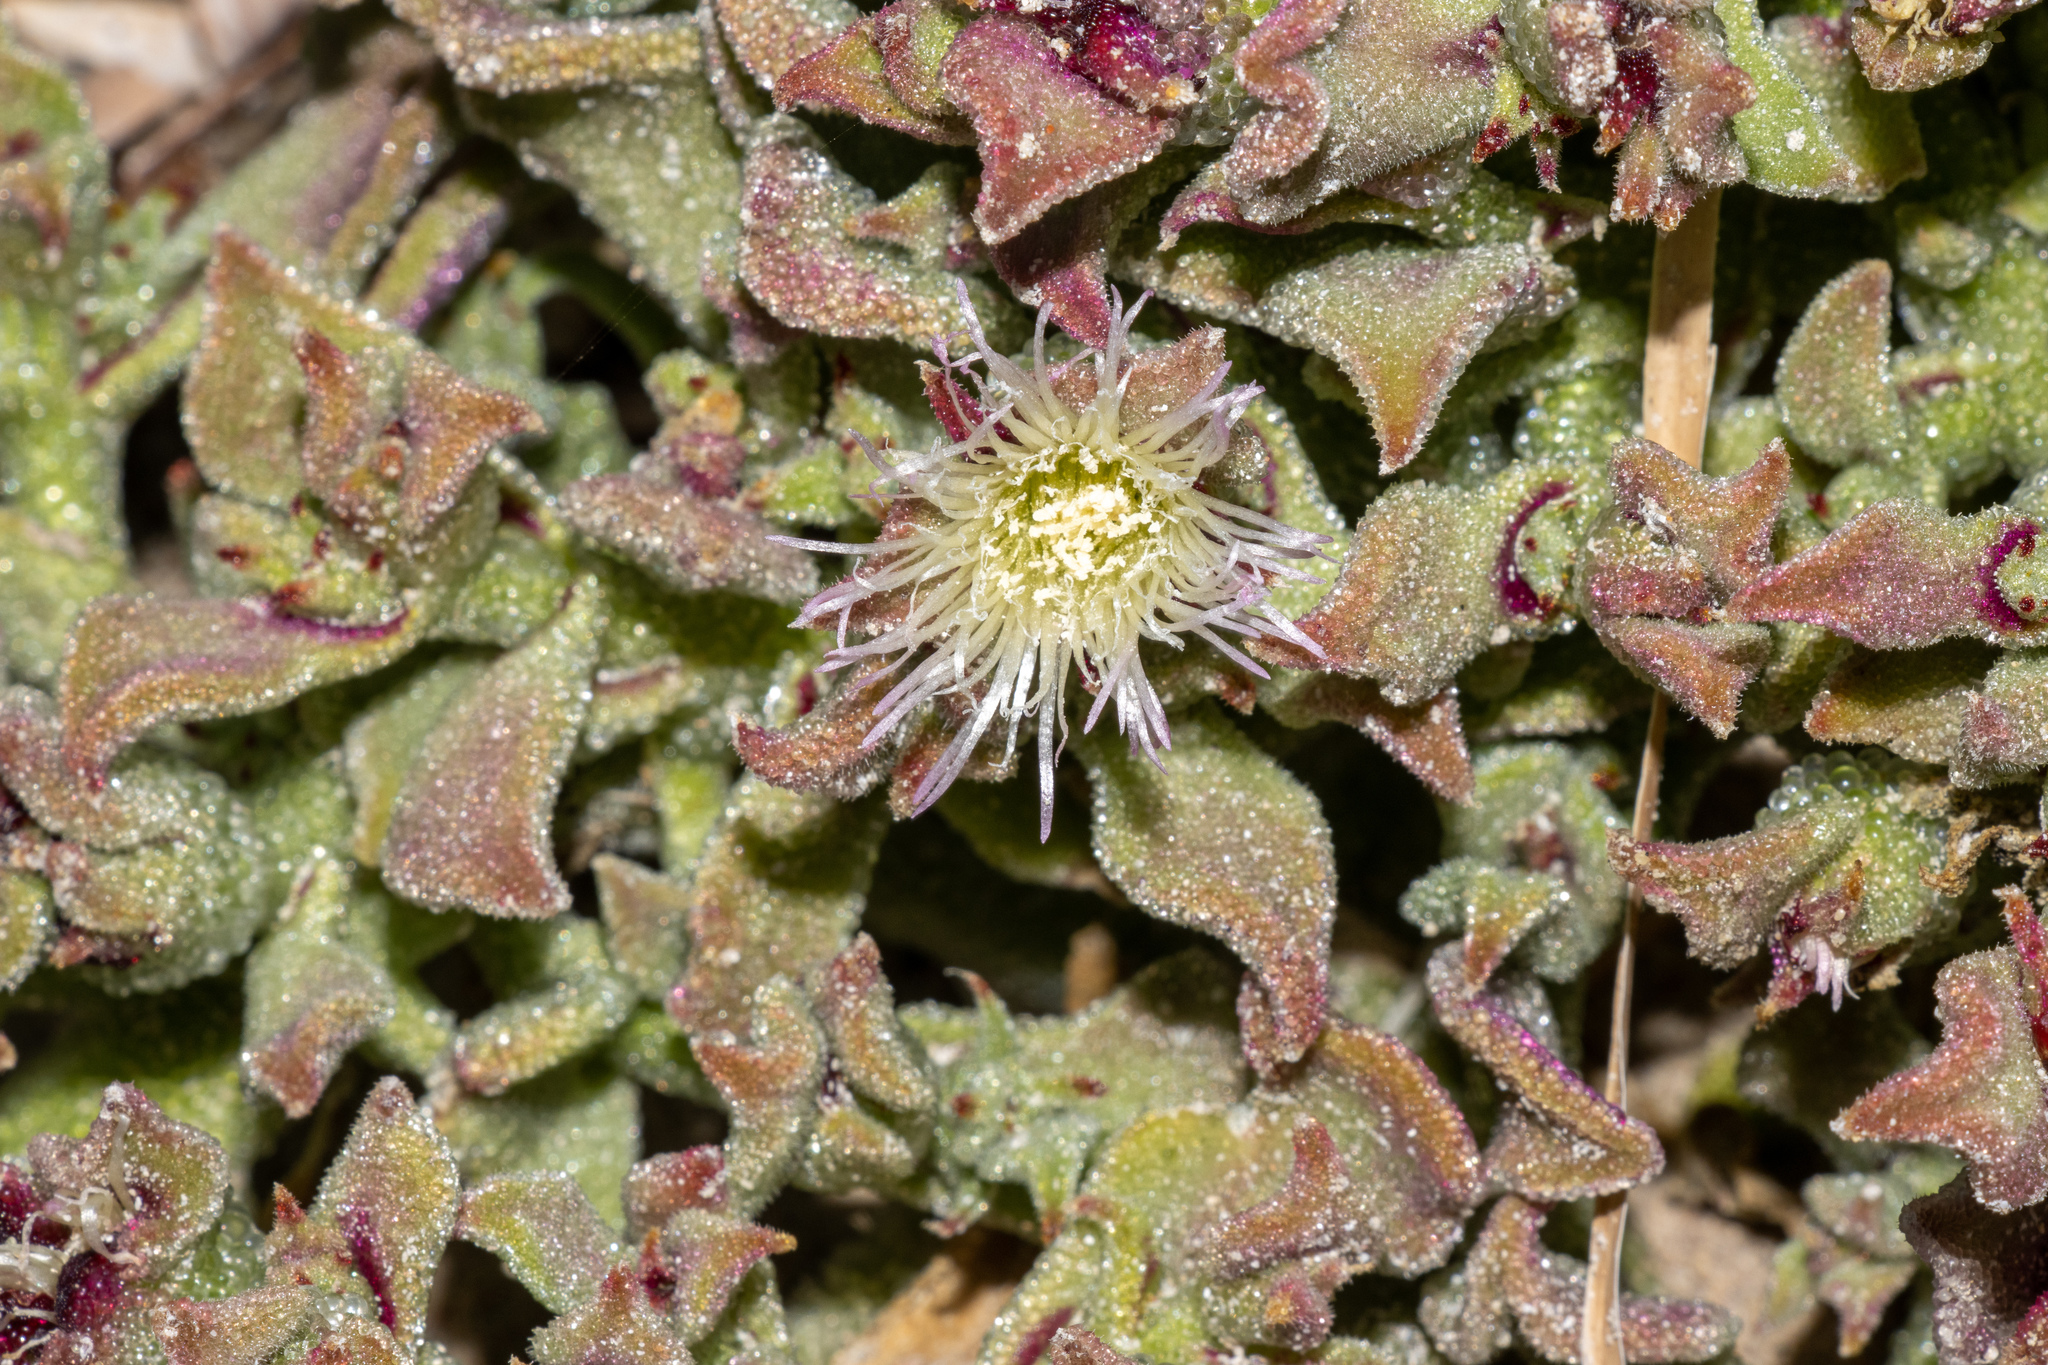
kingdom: Plantae
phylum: Tracheophyta
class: Magnoliopsida
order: Caryophyllales
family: Aizoaceae
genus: Mesembryanthemum
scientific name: Mesembryanthemum crystallinum
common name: Common iceplant
